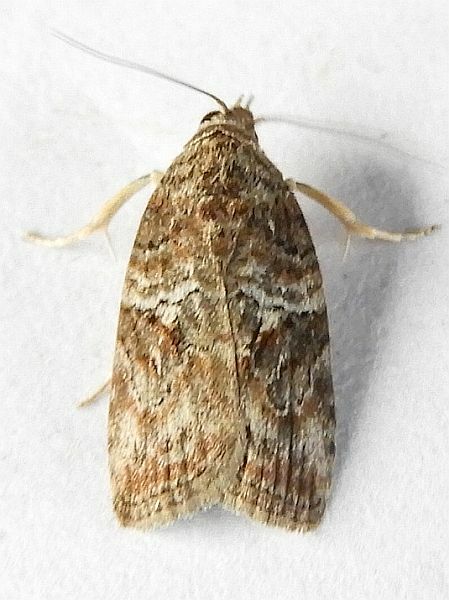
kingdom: Animalia
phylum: Arthropoda
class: Insecta
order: Lepidoptera
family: Nolidae
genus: Garella
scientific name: Garella nilotica
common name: Black-olive caterpillar moth
